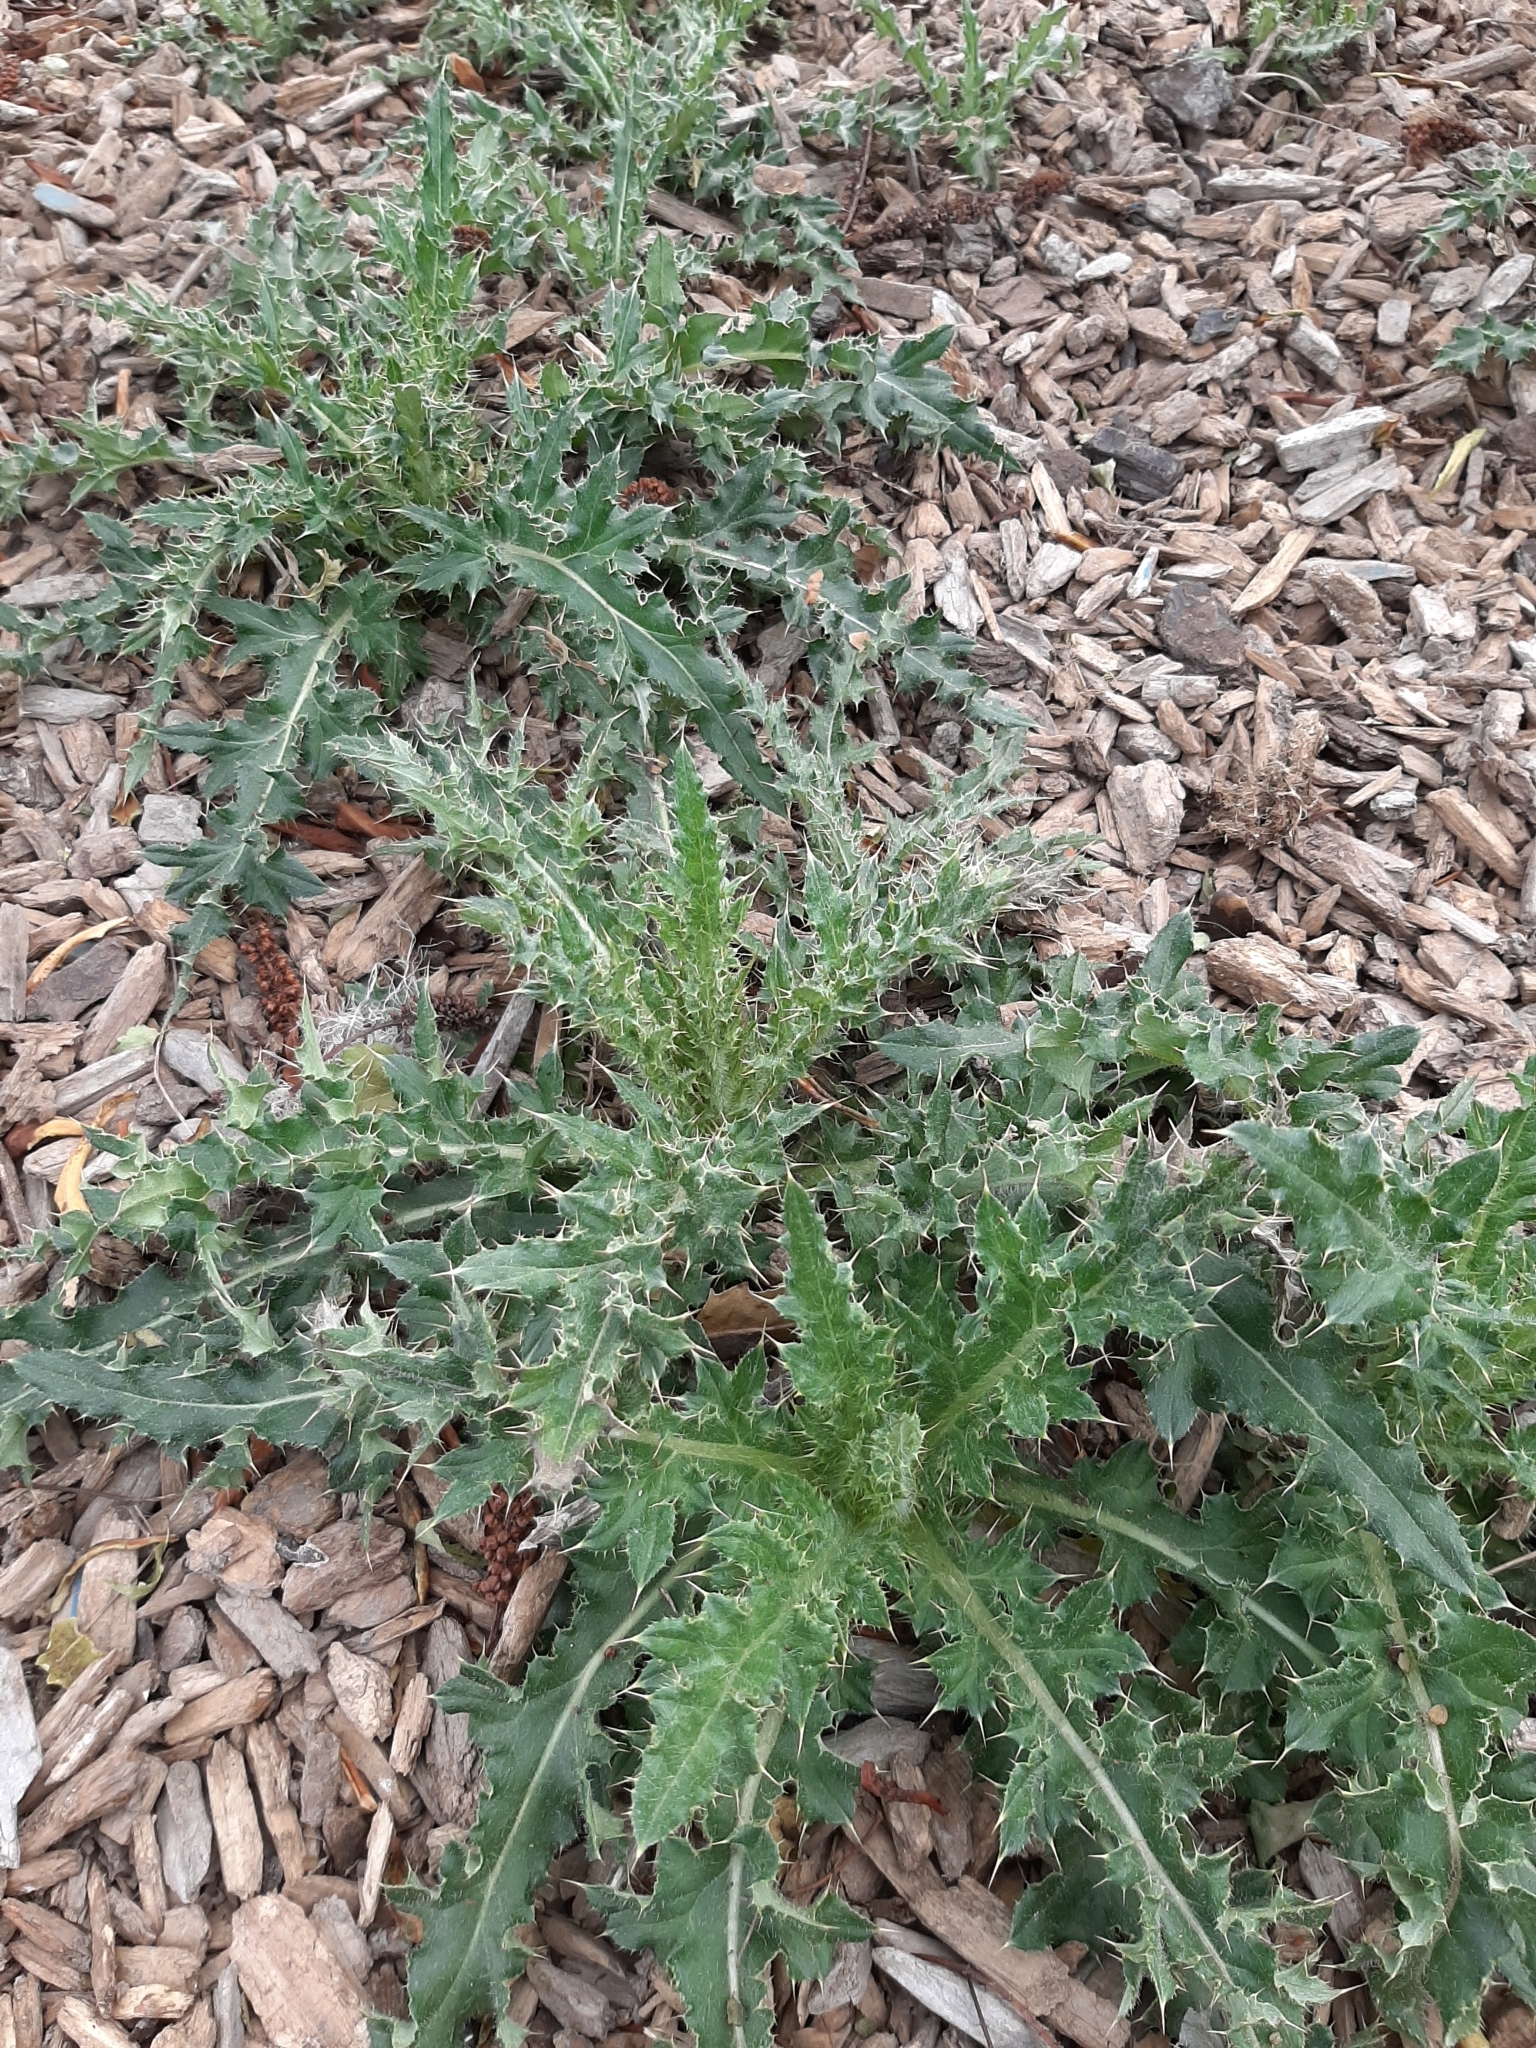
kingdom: Plantae
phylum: Tracheophyta
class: Magnoliopsida
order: Asterales
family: Asteraceae
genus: Cirsium
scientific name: Cirsium arvense
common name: Creeping thistle
